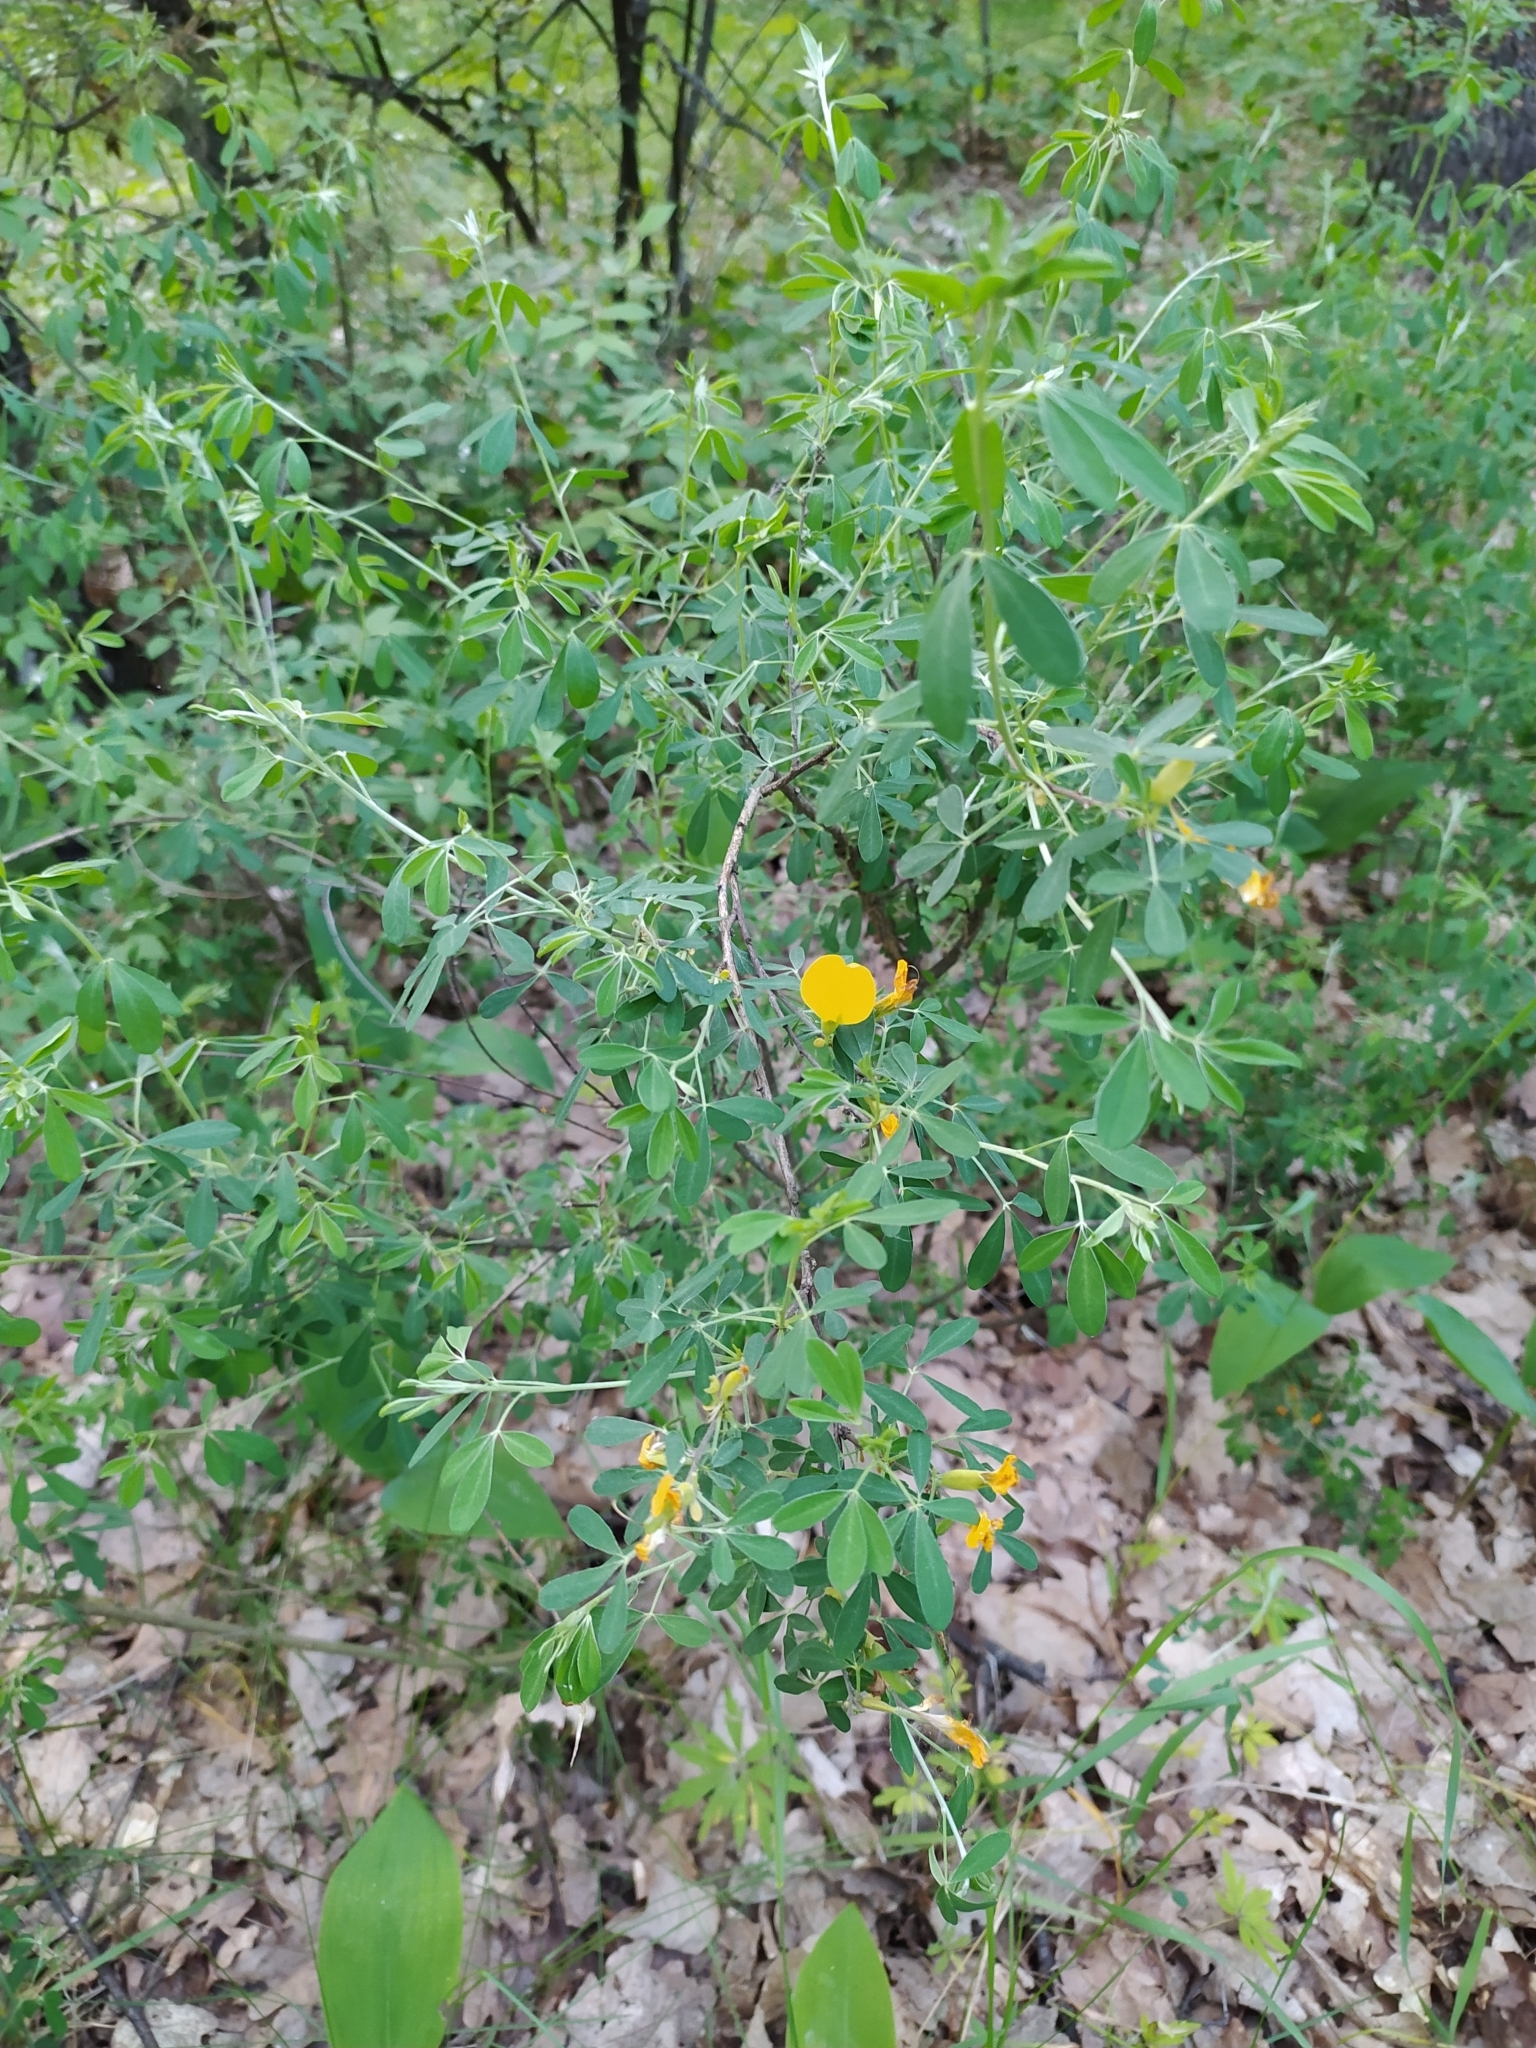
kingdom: Plantae
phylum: Tracheophyta
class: Magnoliopsida
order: Fabales
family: Fabaceae
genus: Chamaecytisus
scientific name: Chamaecytisus ruthenicus
